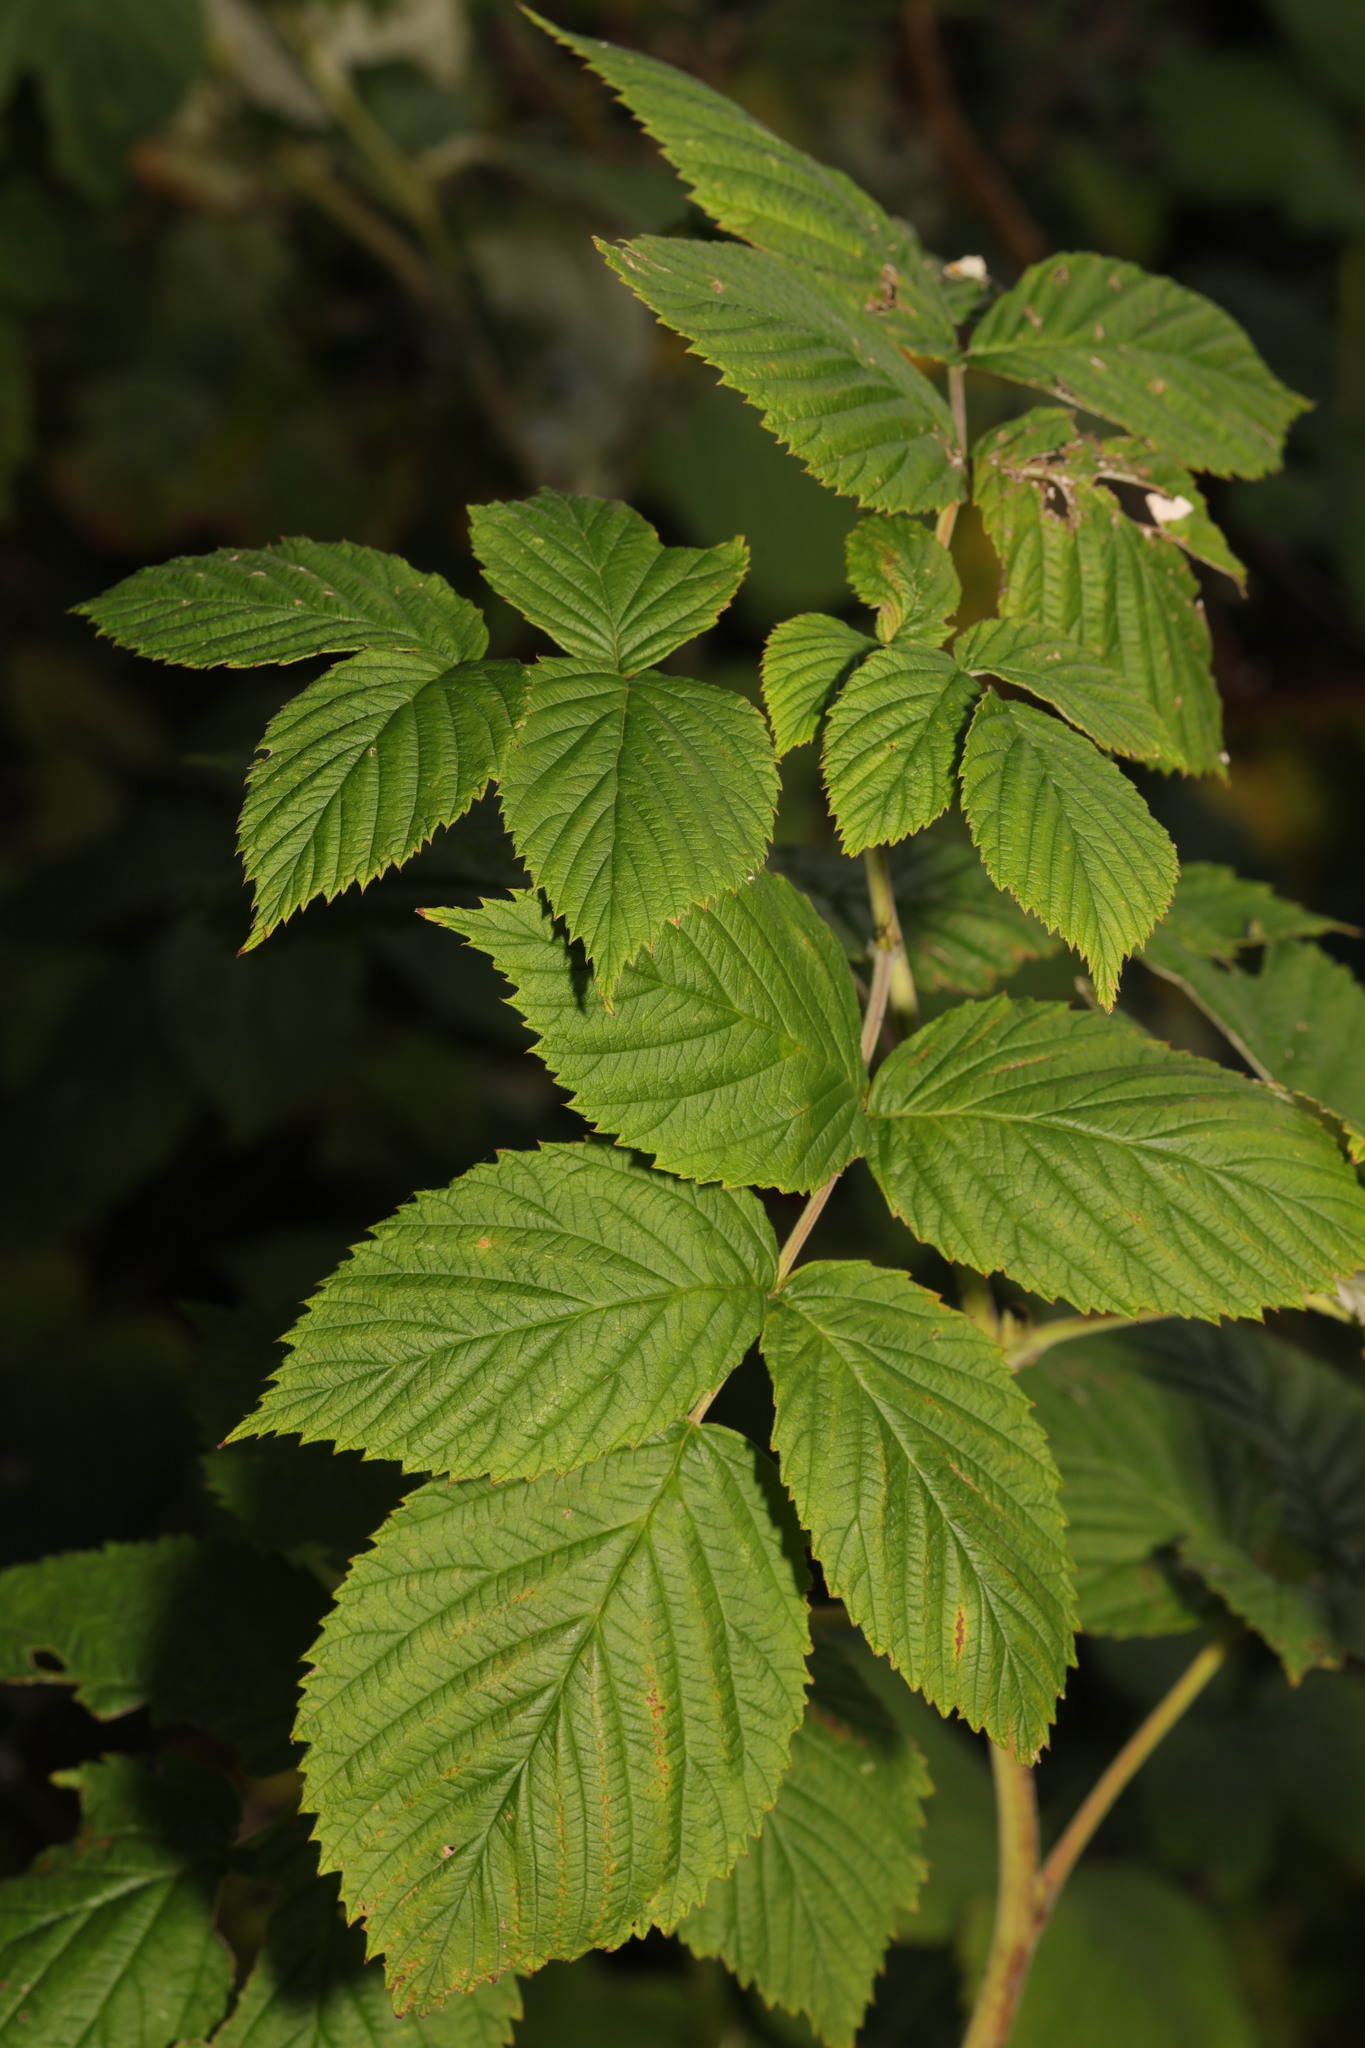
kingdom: Plantae
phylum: Tracheophyta
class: Magnoliopsida
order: Rosales
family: Rosaceae
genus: Rubus
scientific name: Rubus idaeus
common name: Raspberry
